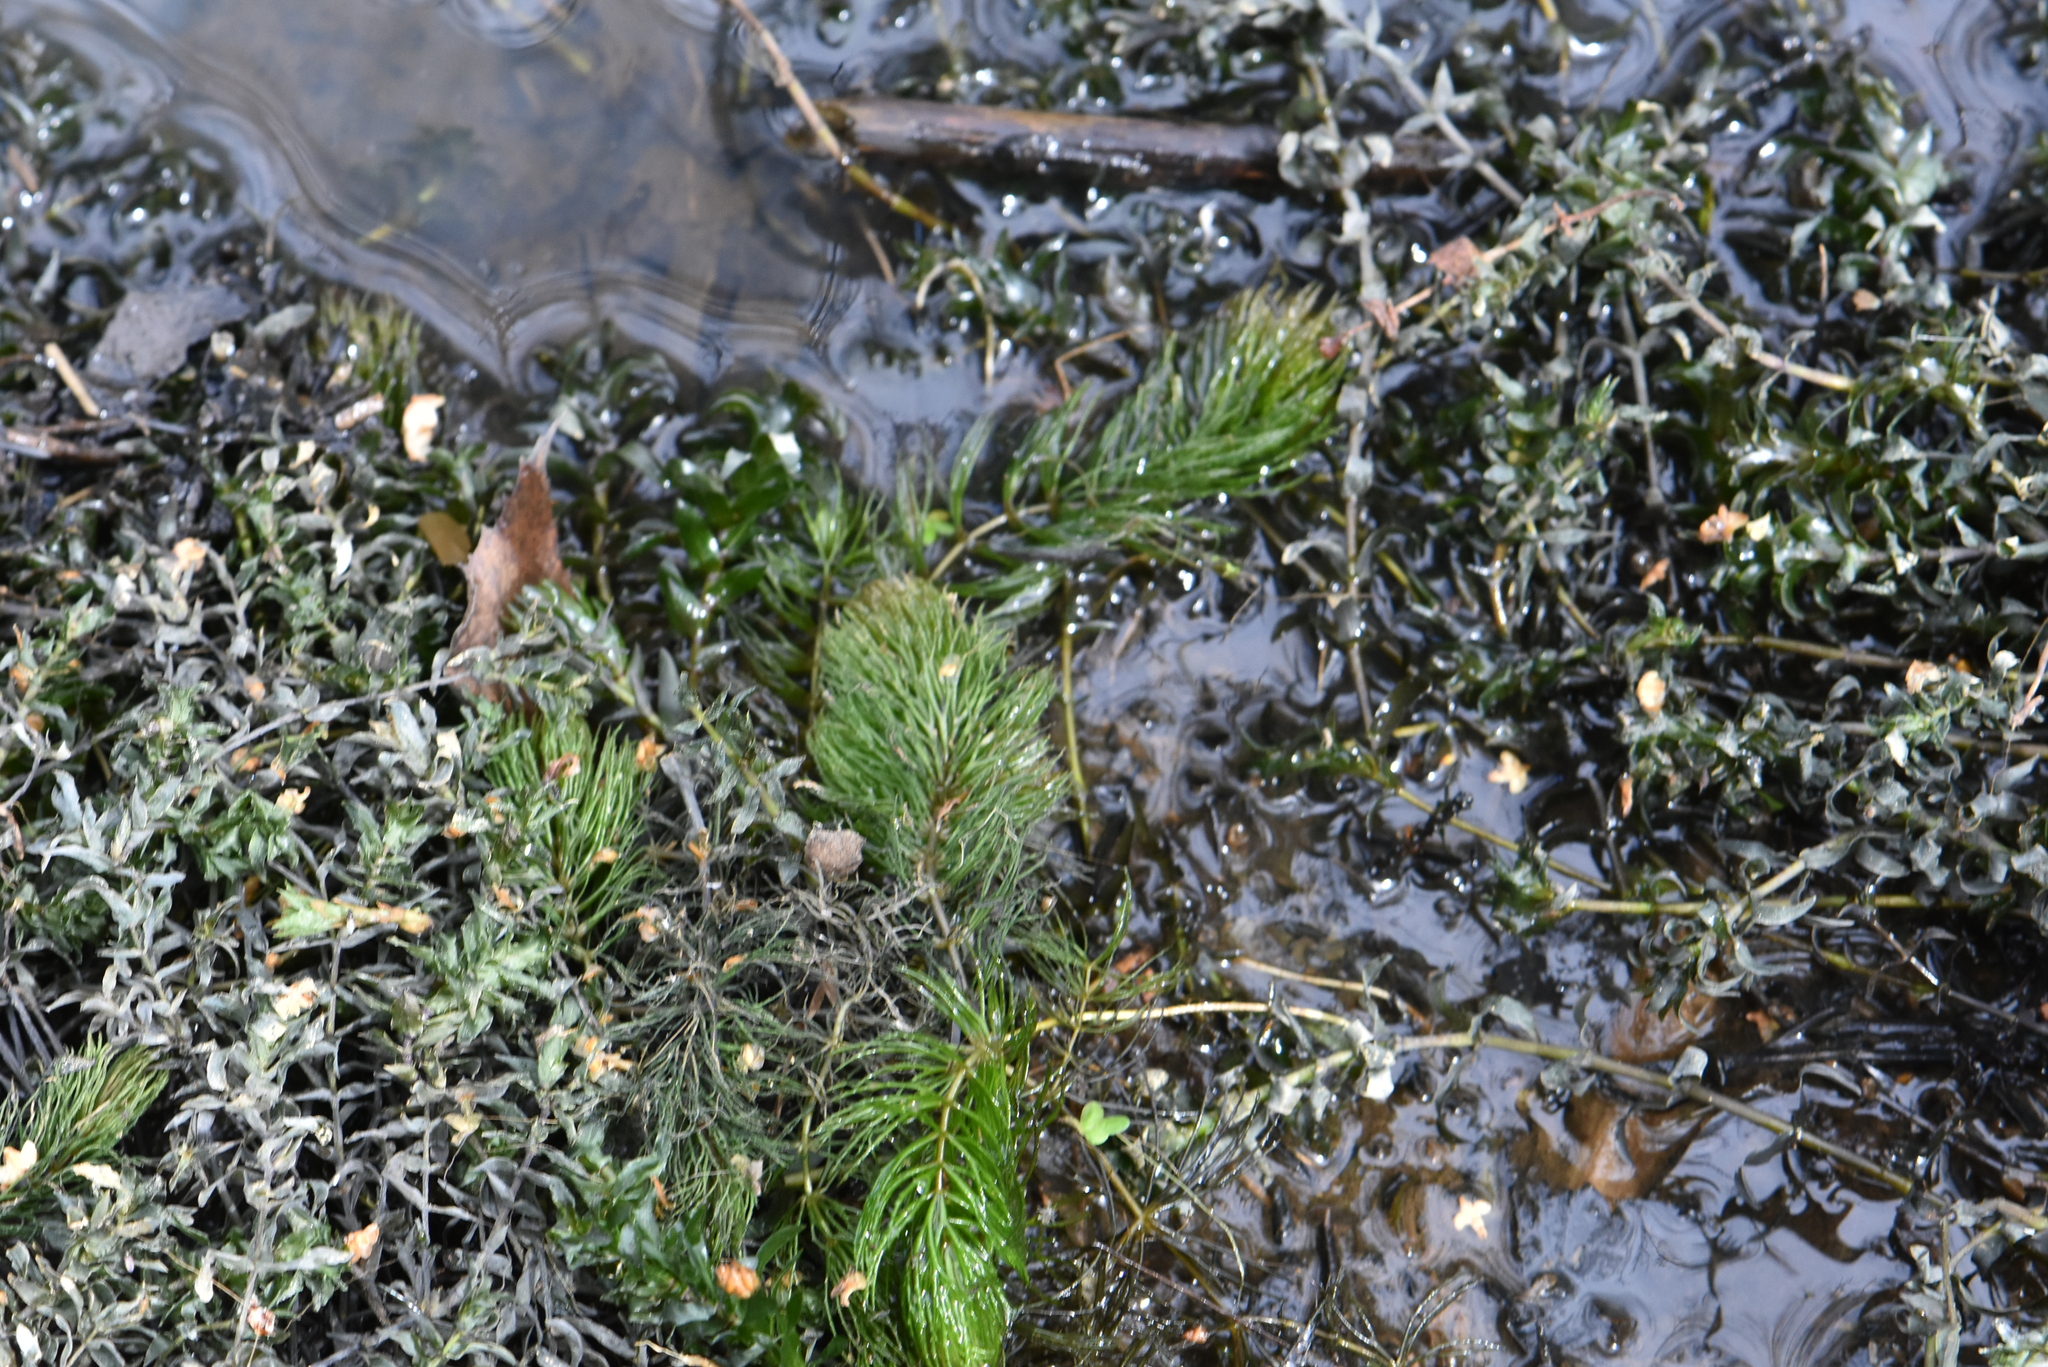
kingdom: Plantae
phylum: Tracheophyta
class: Magnoliopsida
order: Ceratophyllales
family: Ceratophyllaceae
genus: Ceratophyllum
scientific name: Ceratophyllum demersum
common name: Rigid hornwort
